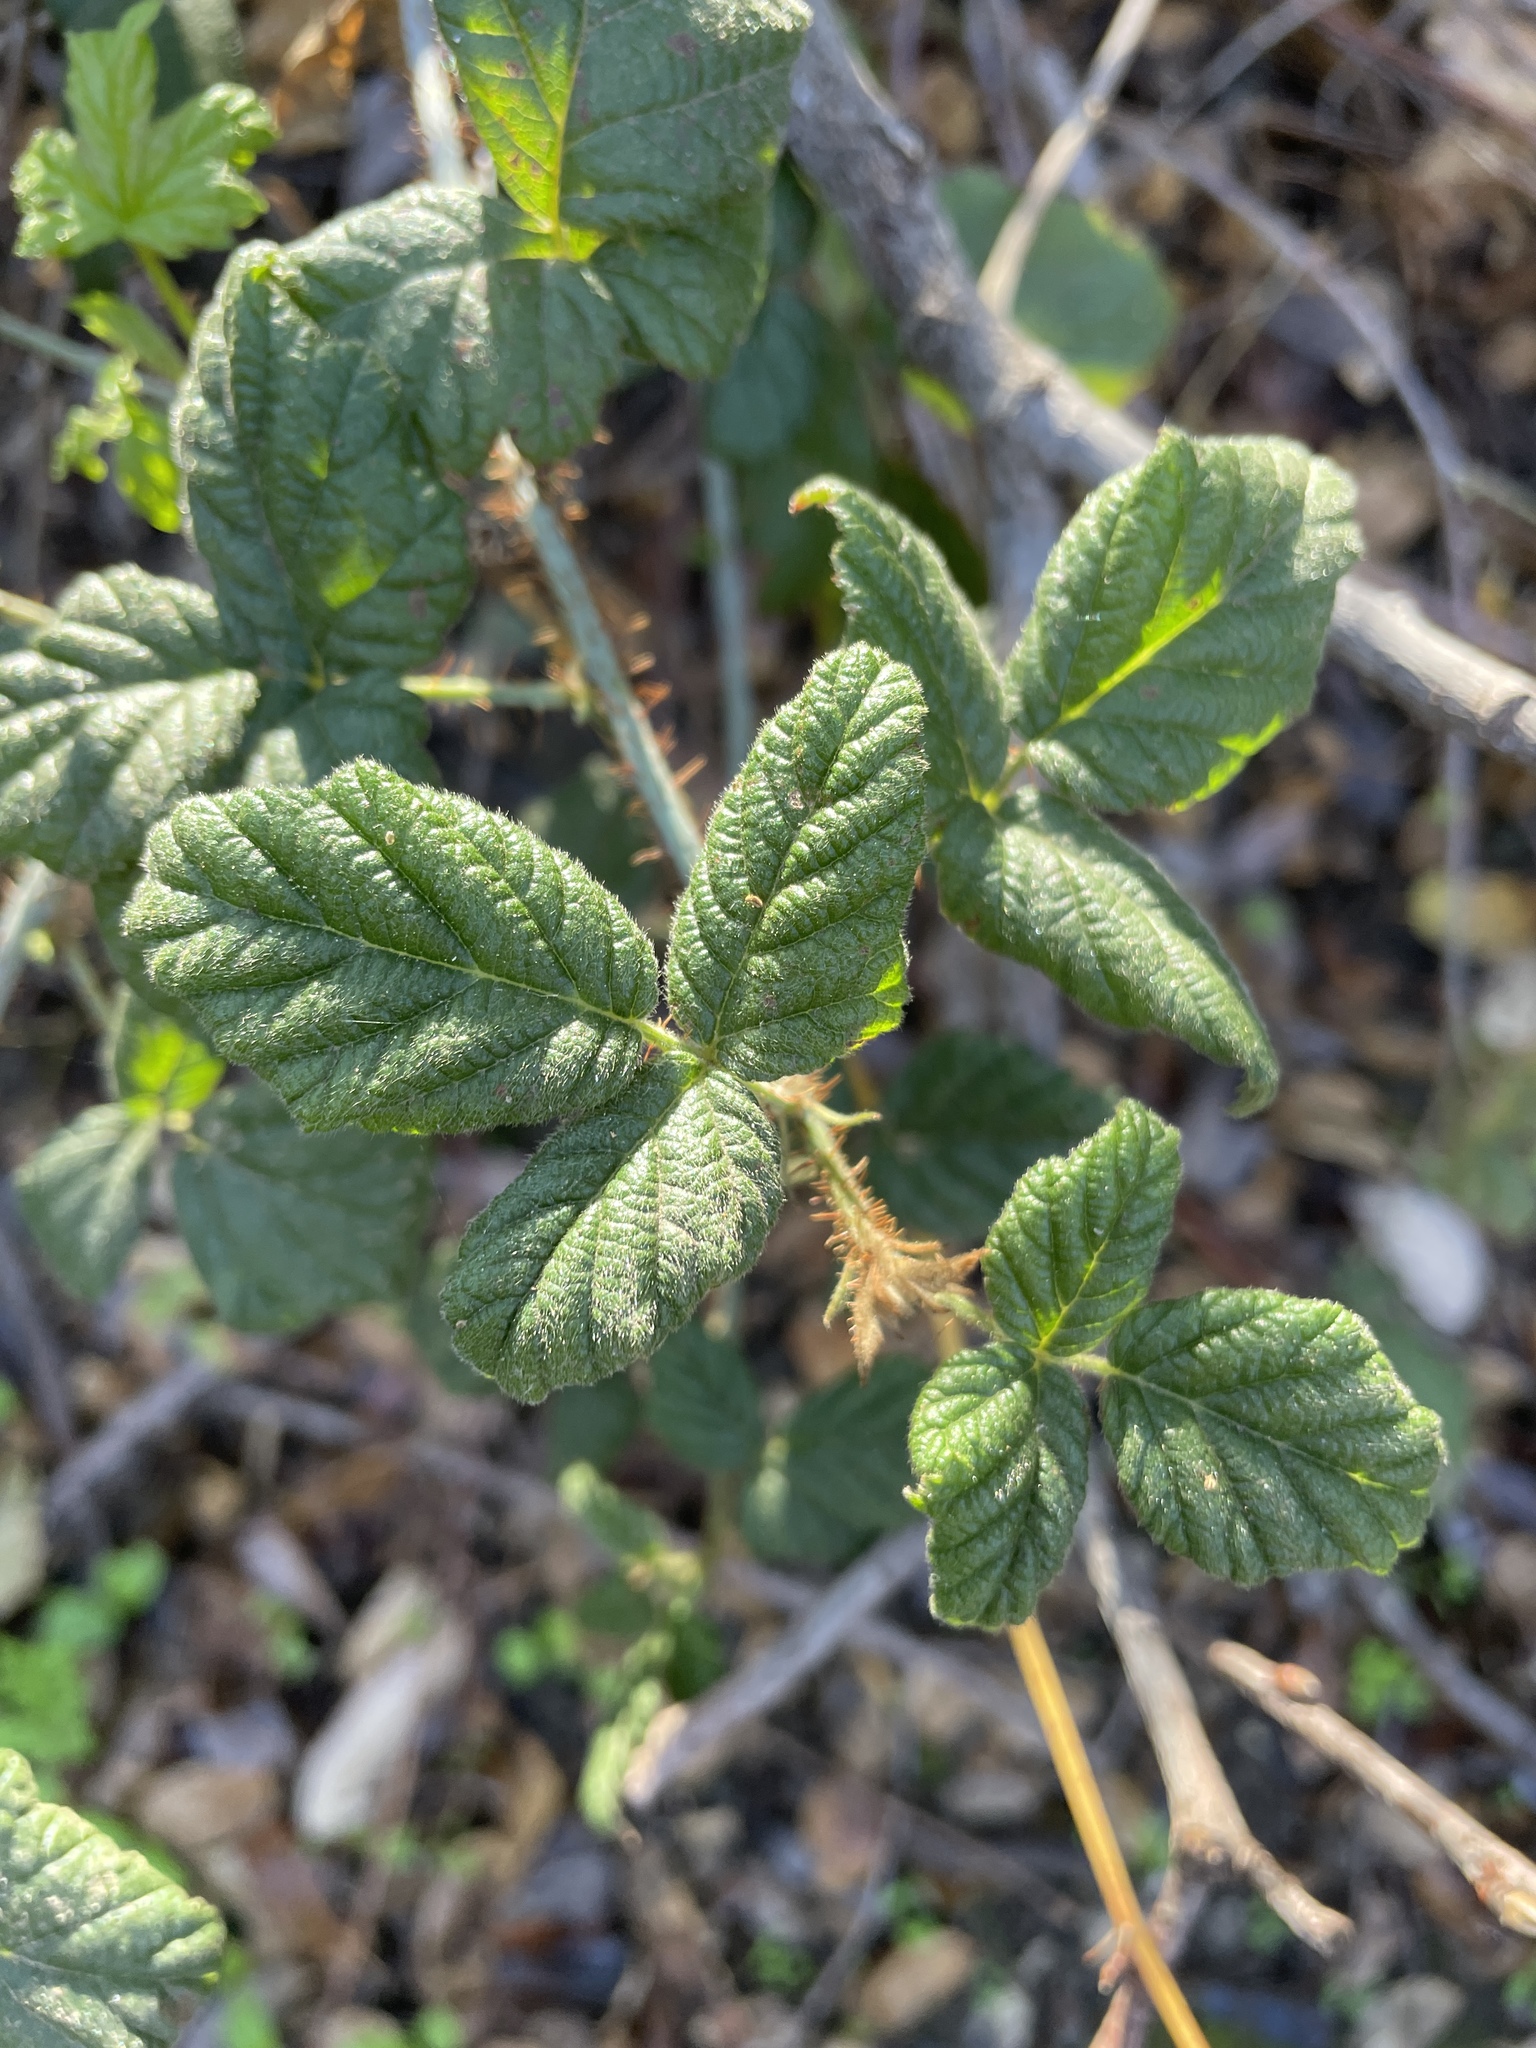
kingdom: Plantae
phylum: Tracheophyta
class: Magnoliopsida
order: Rosales
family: Rosaceae
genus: Rubus
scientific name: Rubus ursinus
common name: Pacific blackberry
